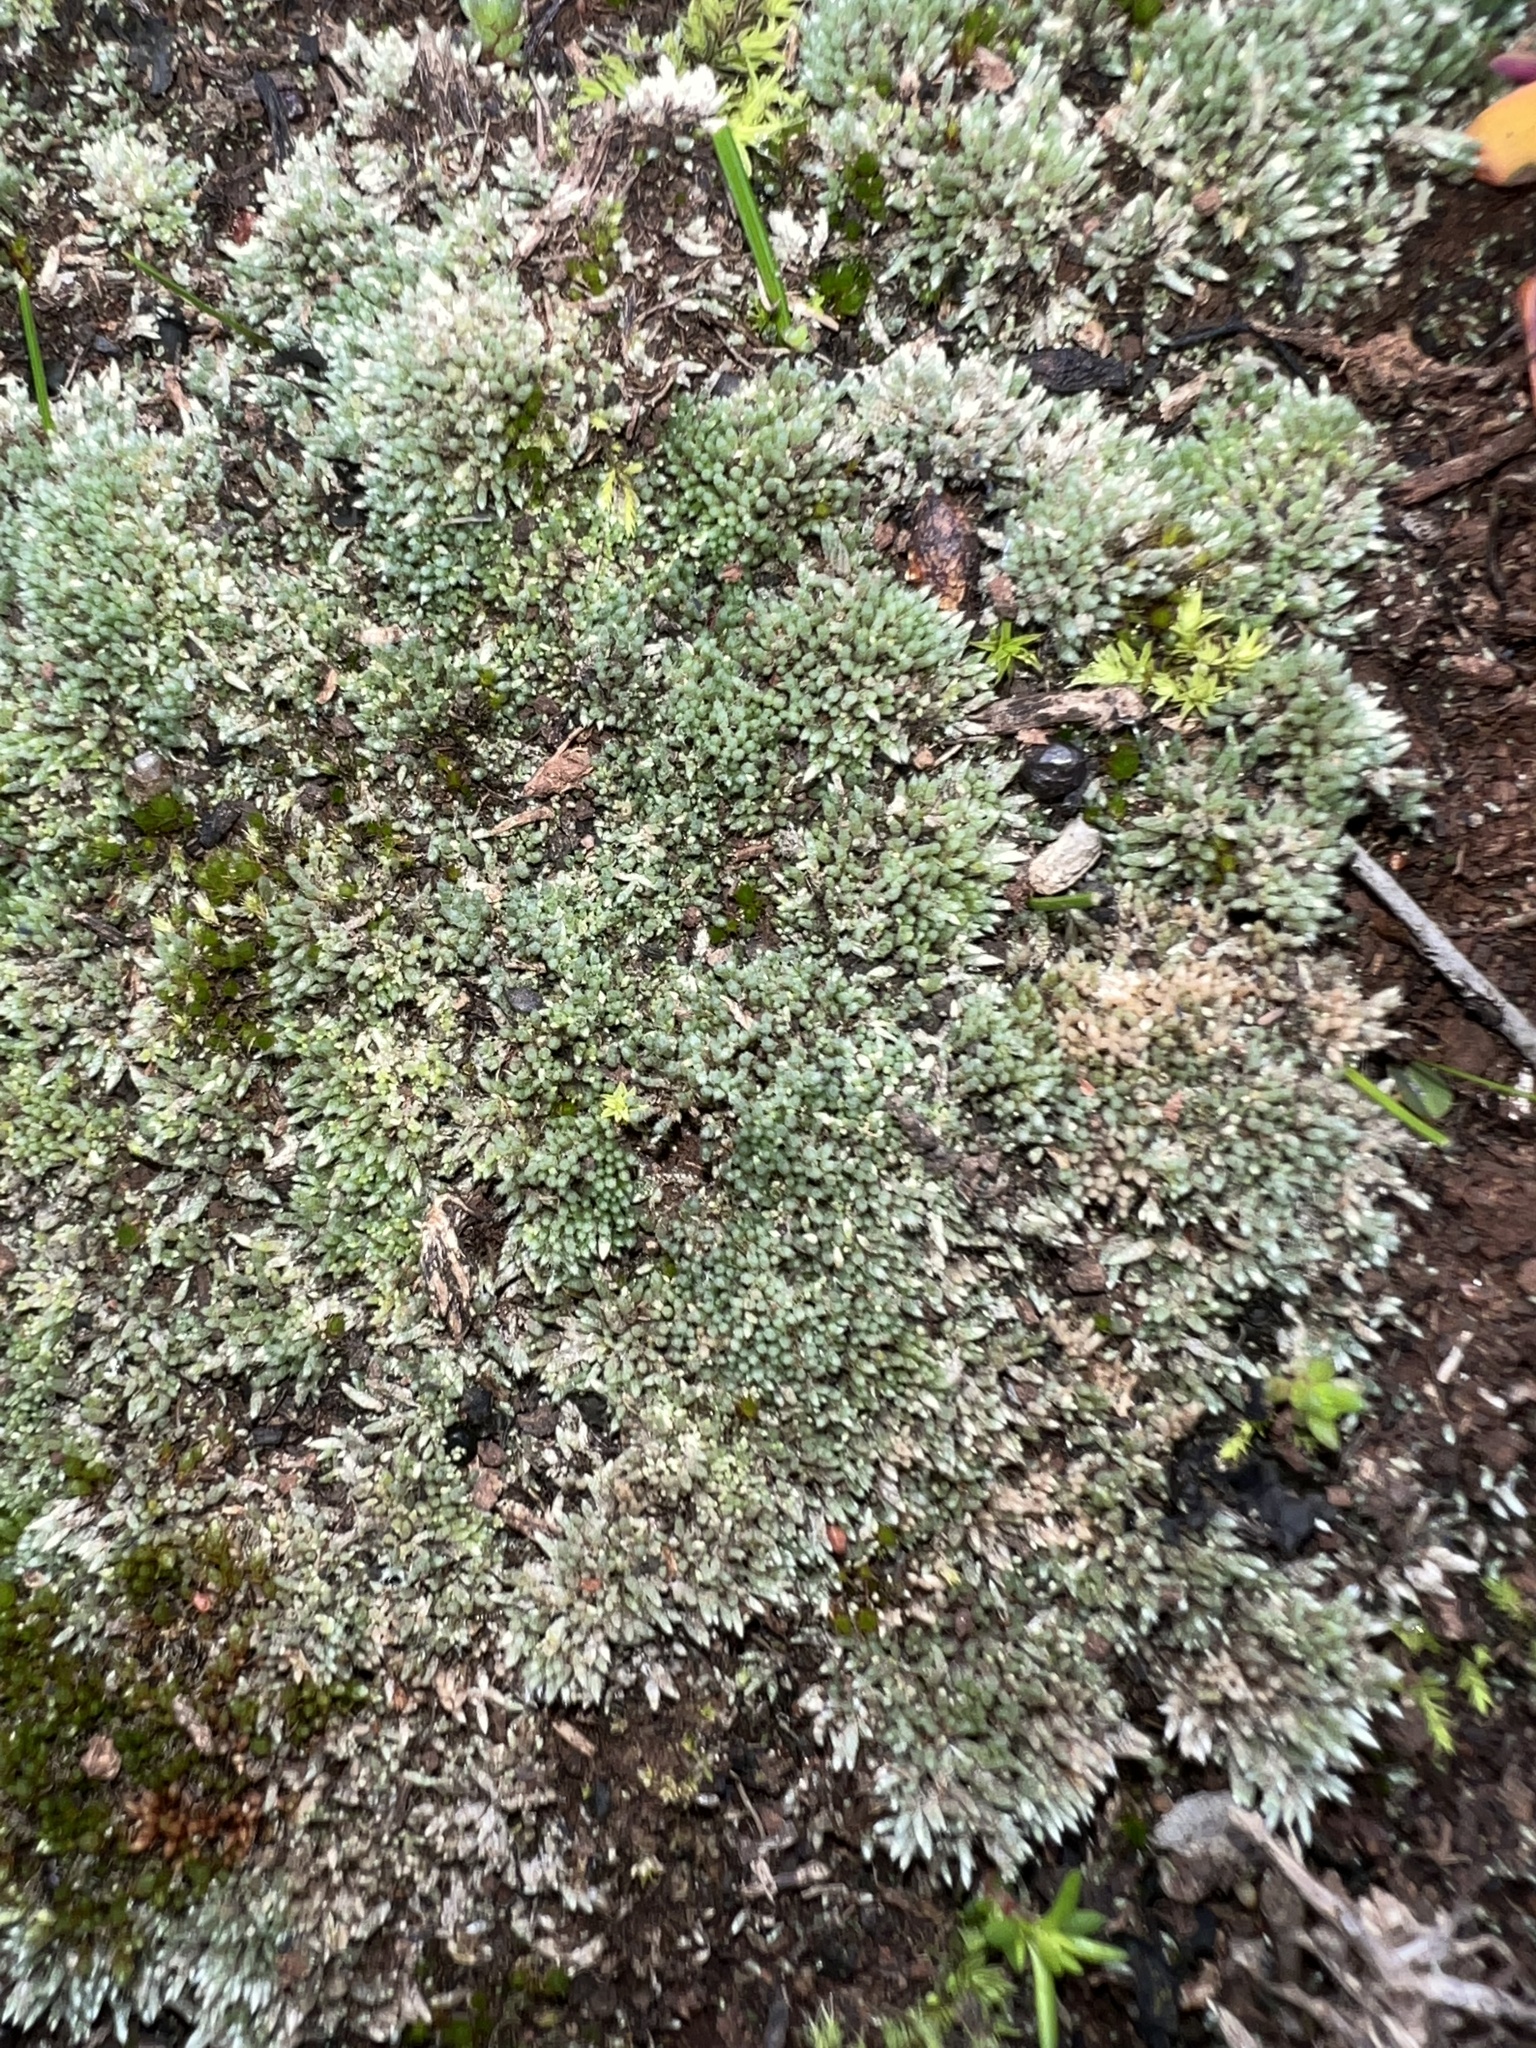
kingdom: Plantae
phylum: Bryophyta
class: Bryopsida
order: Bryales
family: Bryaceae
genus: Bryum
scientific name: Bryum argenteum
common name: Silver-moss
